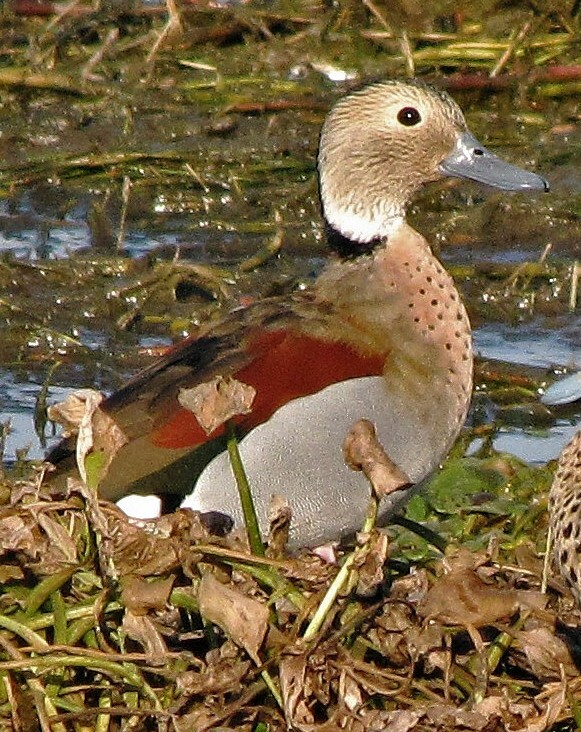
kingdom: Animalia
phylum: Chordata
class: Aves
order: Anseriformes
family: Anatidae
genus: Callonetta
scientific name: Callonetta leucophrys
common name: Ringed teal
